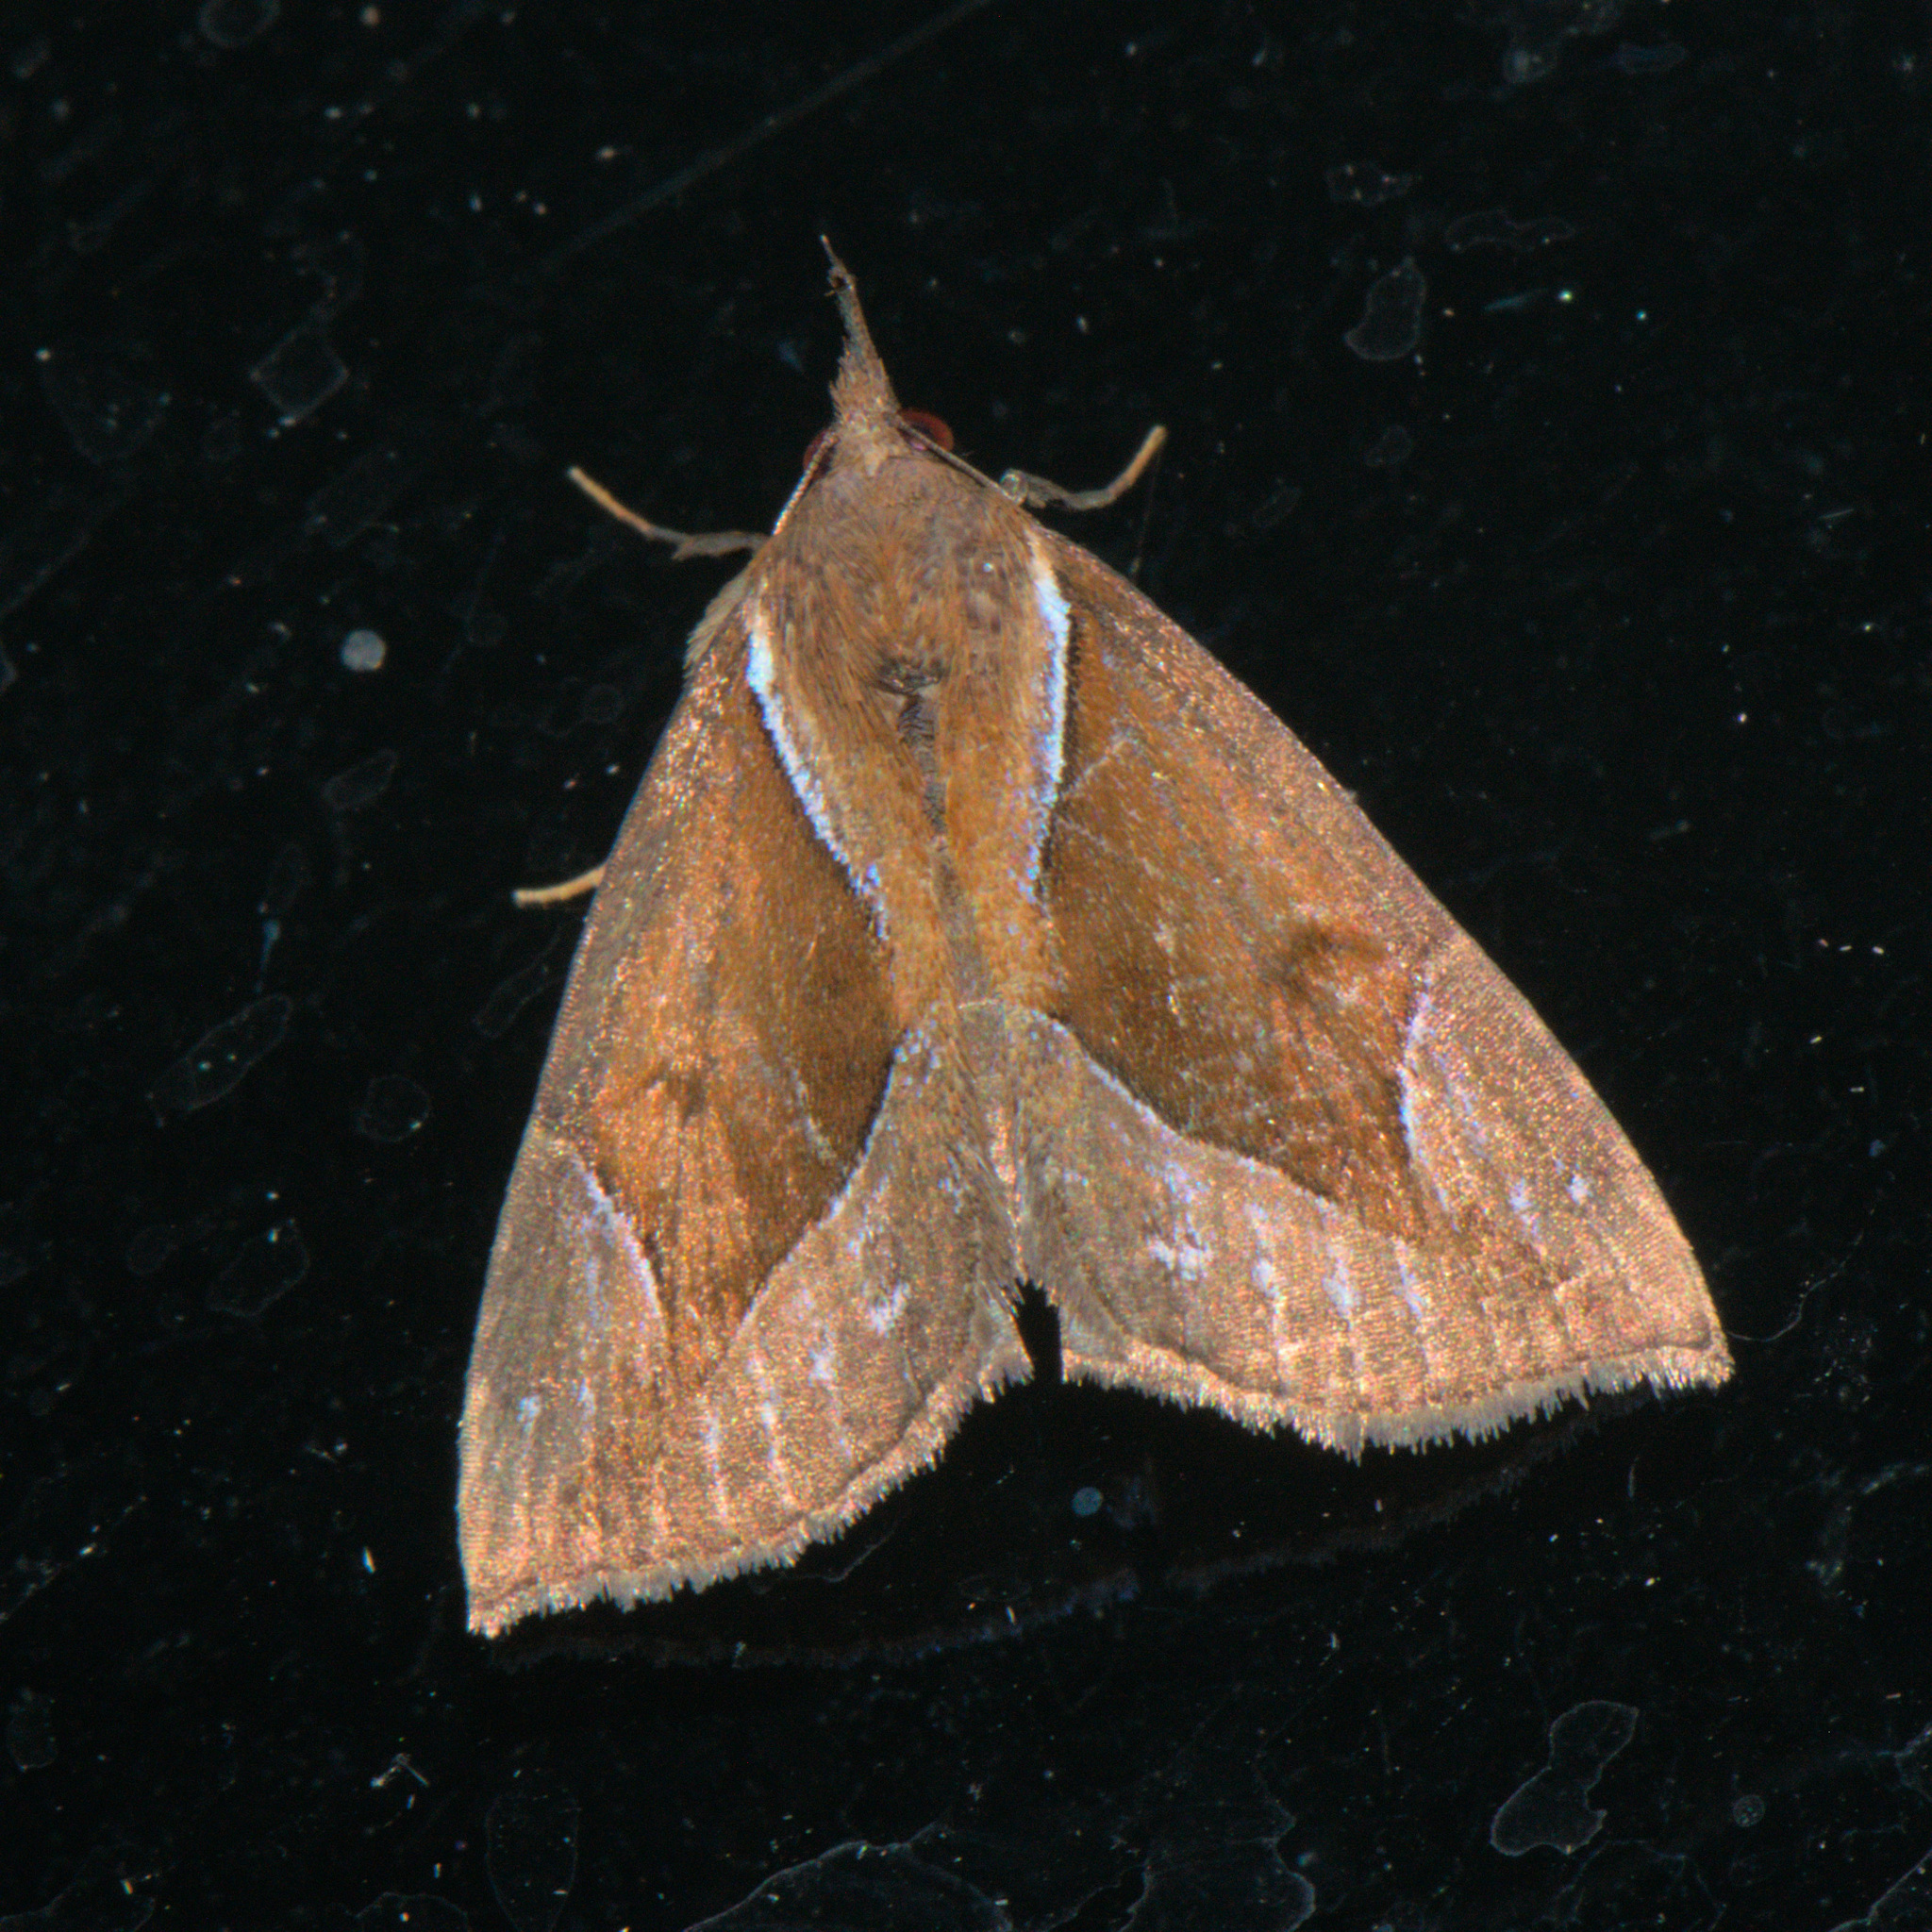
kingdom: Animalia
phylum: Arthropoda
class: Insecta
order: Lepidoptera
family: Erebidae
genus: Hypena
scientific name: Hypena rhombalis
